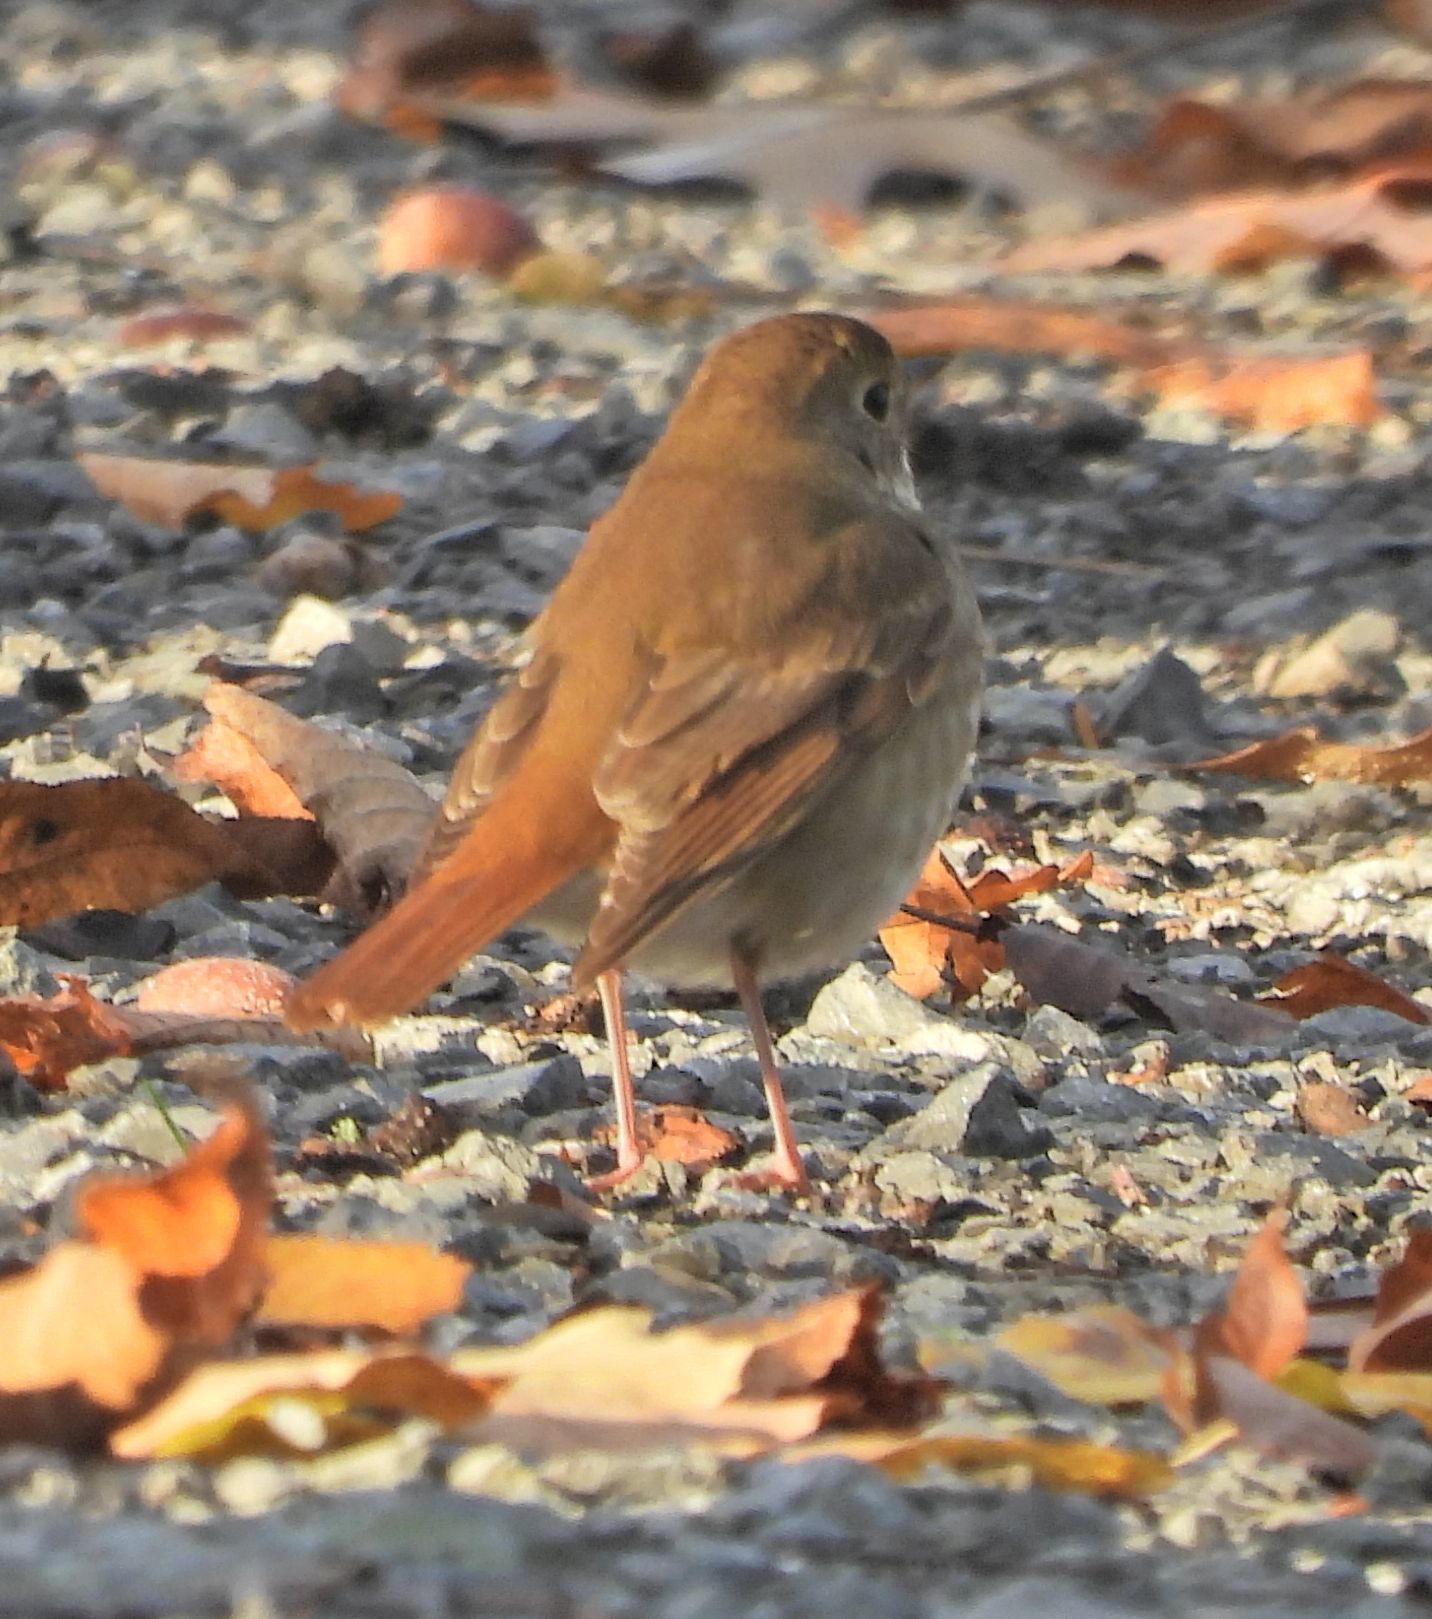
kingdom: Animalia
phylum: Chordata
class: Aves
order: Passeriformes
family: Turdidae
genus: Catharus
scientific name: Catharus guttatus
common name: Hermit thrush
